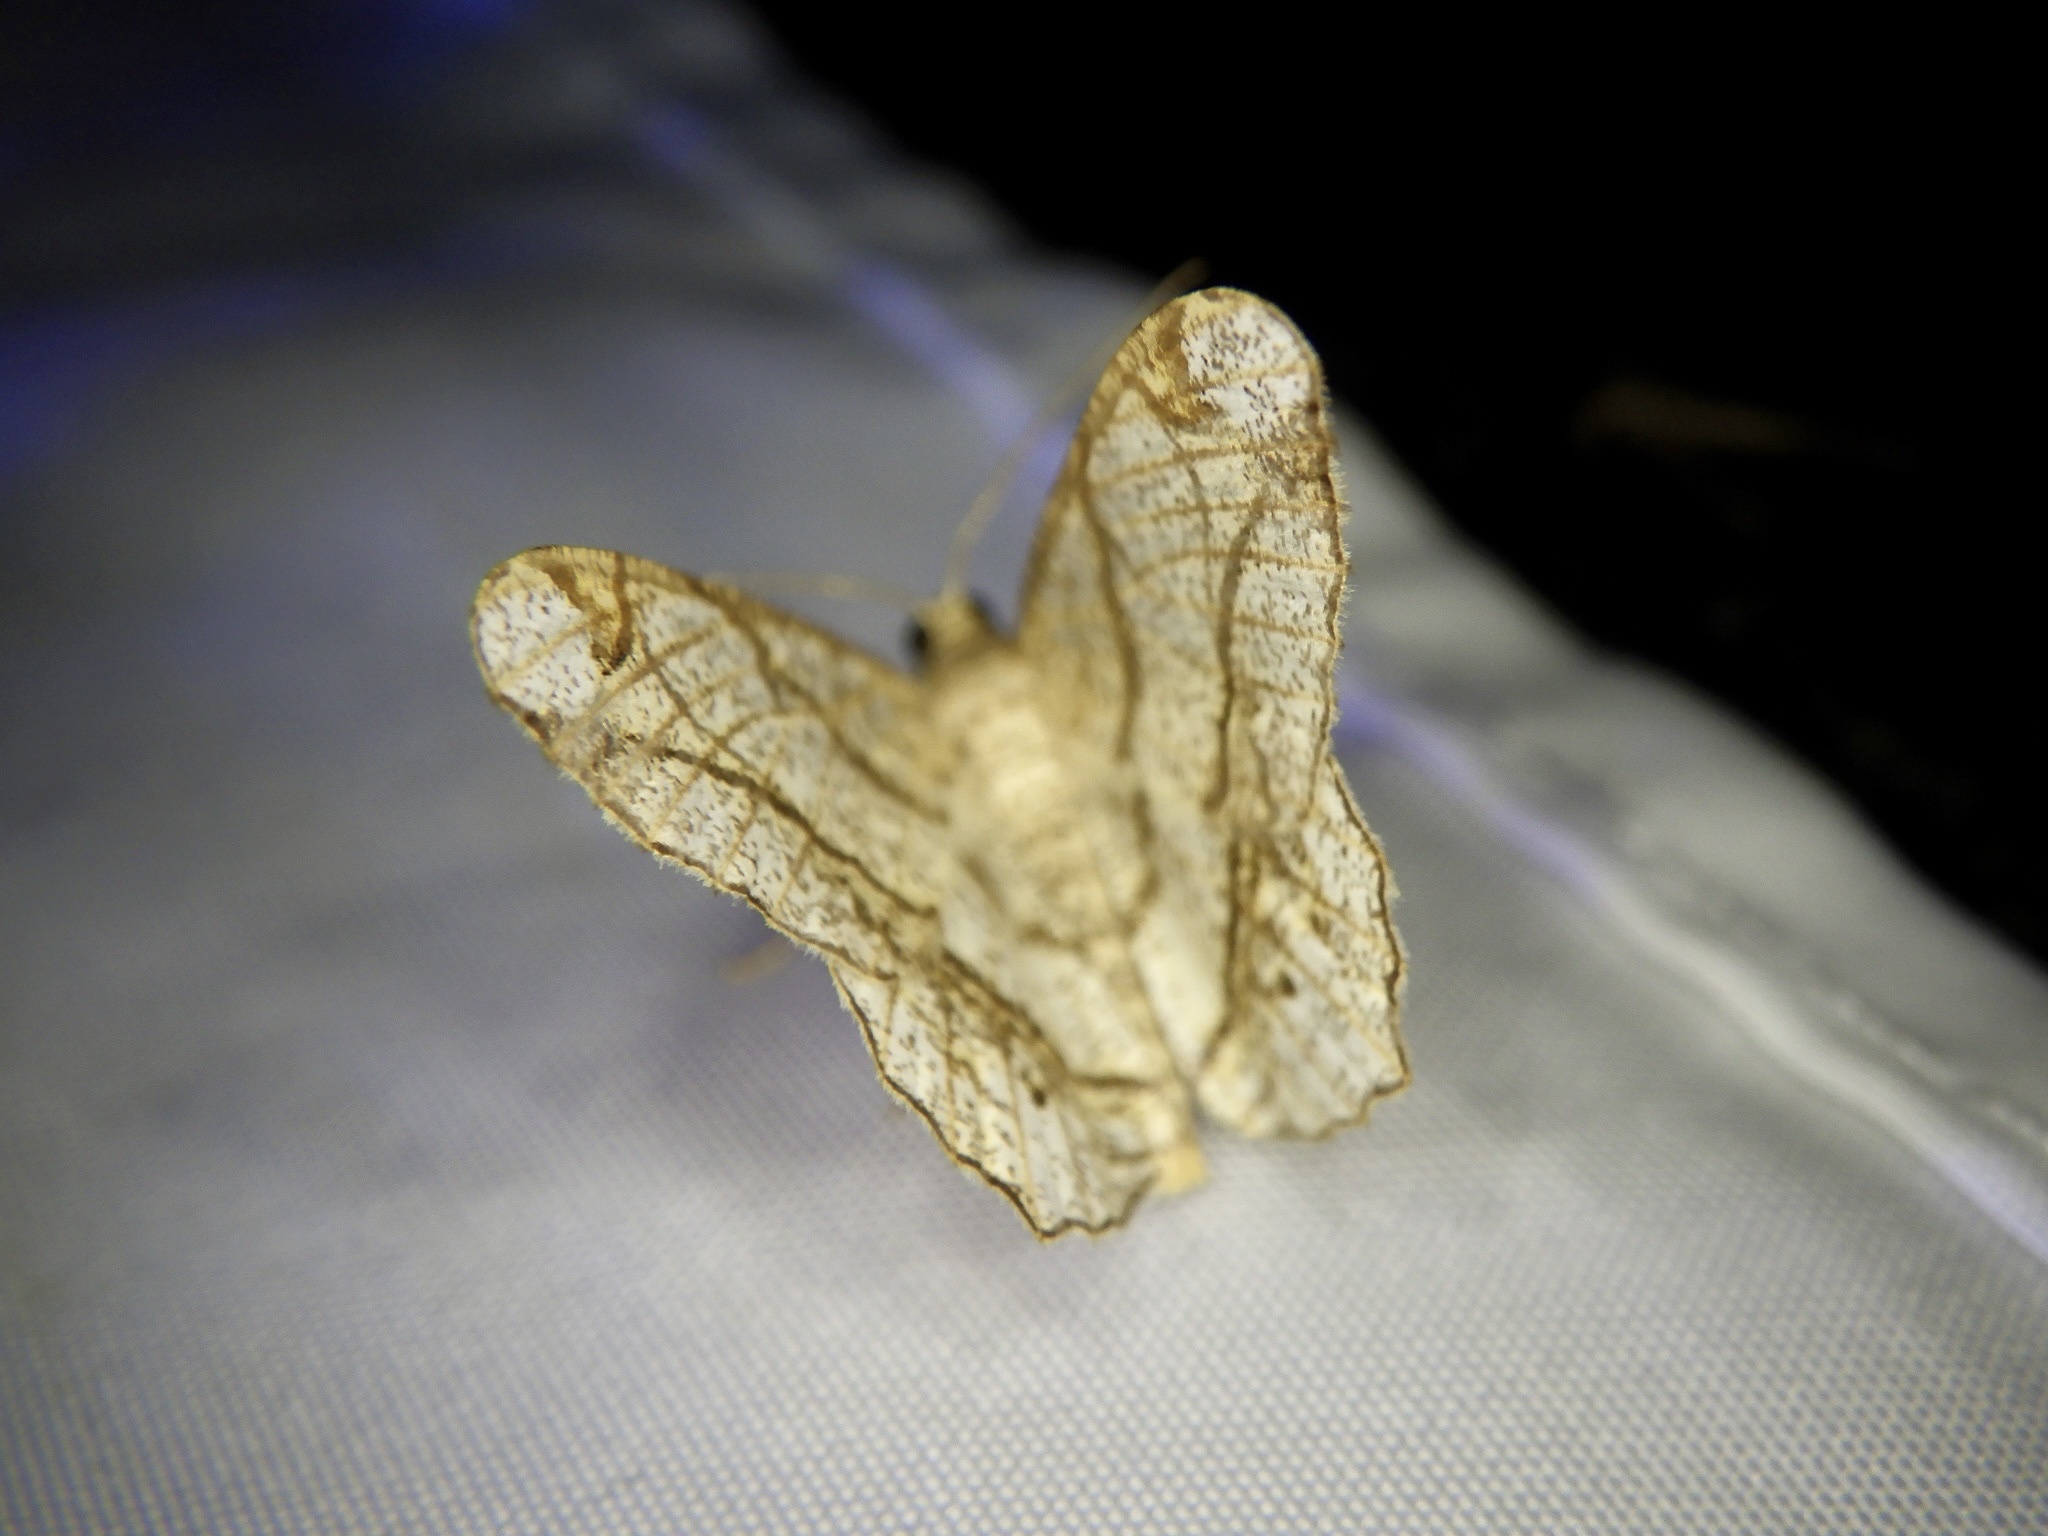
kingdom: Animalia
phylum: Arthropoda
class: Insecta
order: Lepidoptera
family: Geometridae
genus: Chiasmia
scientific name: Chiasmia defixaria
